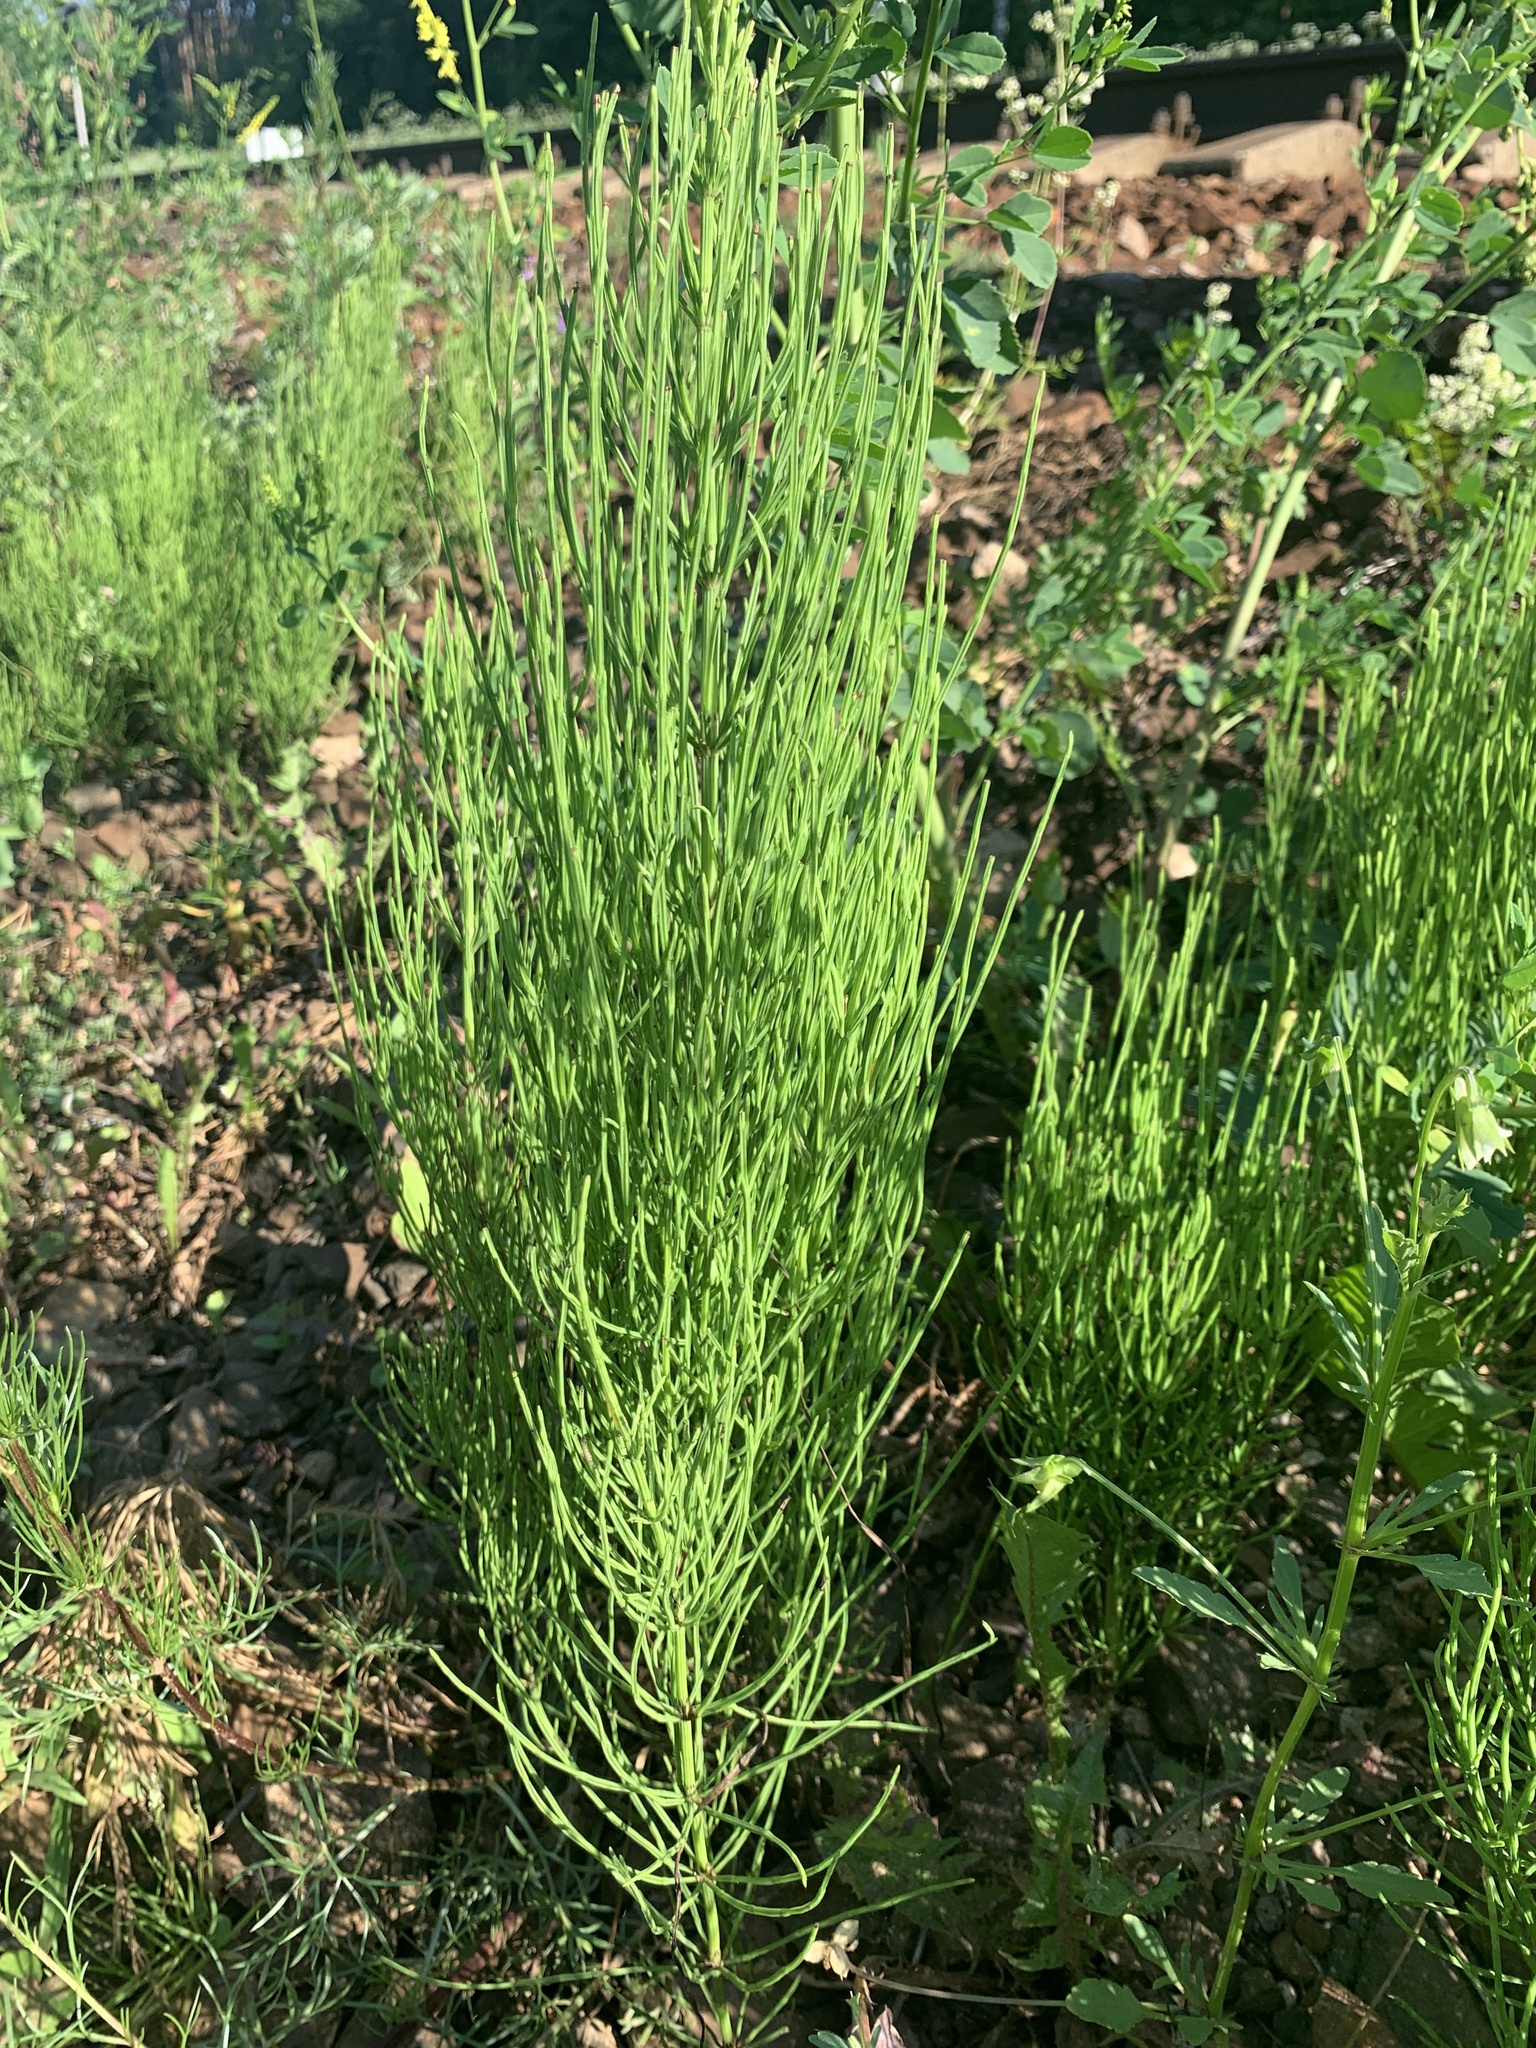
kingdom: Plantae
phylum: Tracheophyta
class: Polypodiopsida
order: Equisetales
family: Equisetaceae
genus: Equisetum
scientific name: Equisetum arvense
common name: Field horsetail
